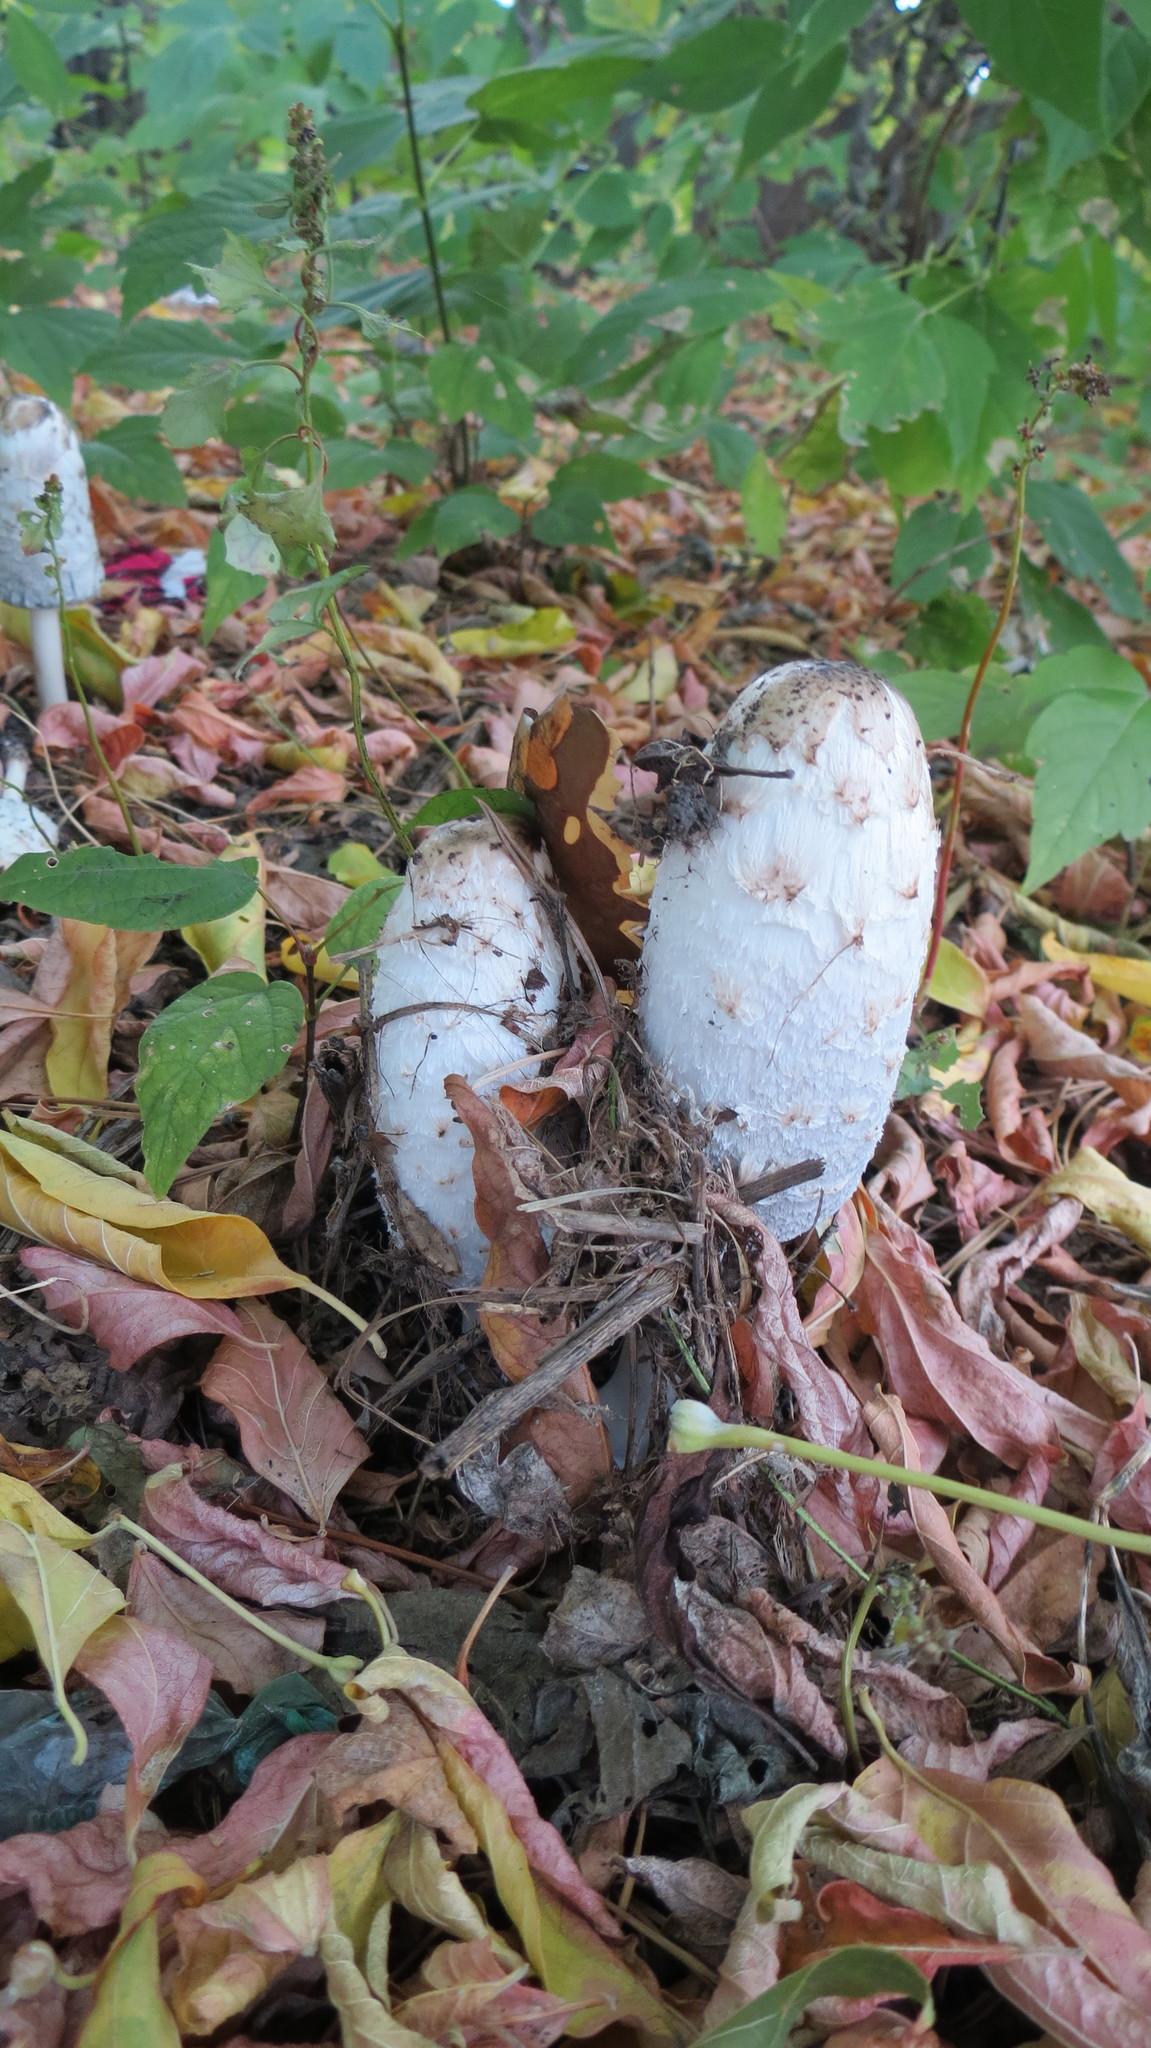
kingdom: Fungi
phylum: Basidiomycota
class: Agaricomycetes
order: Agaricales
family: Agaricaceae
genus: Coprinus
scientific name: Coprinus comatus
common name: Lawyer's wig
